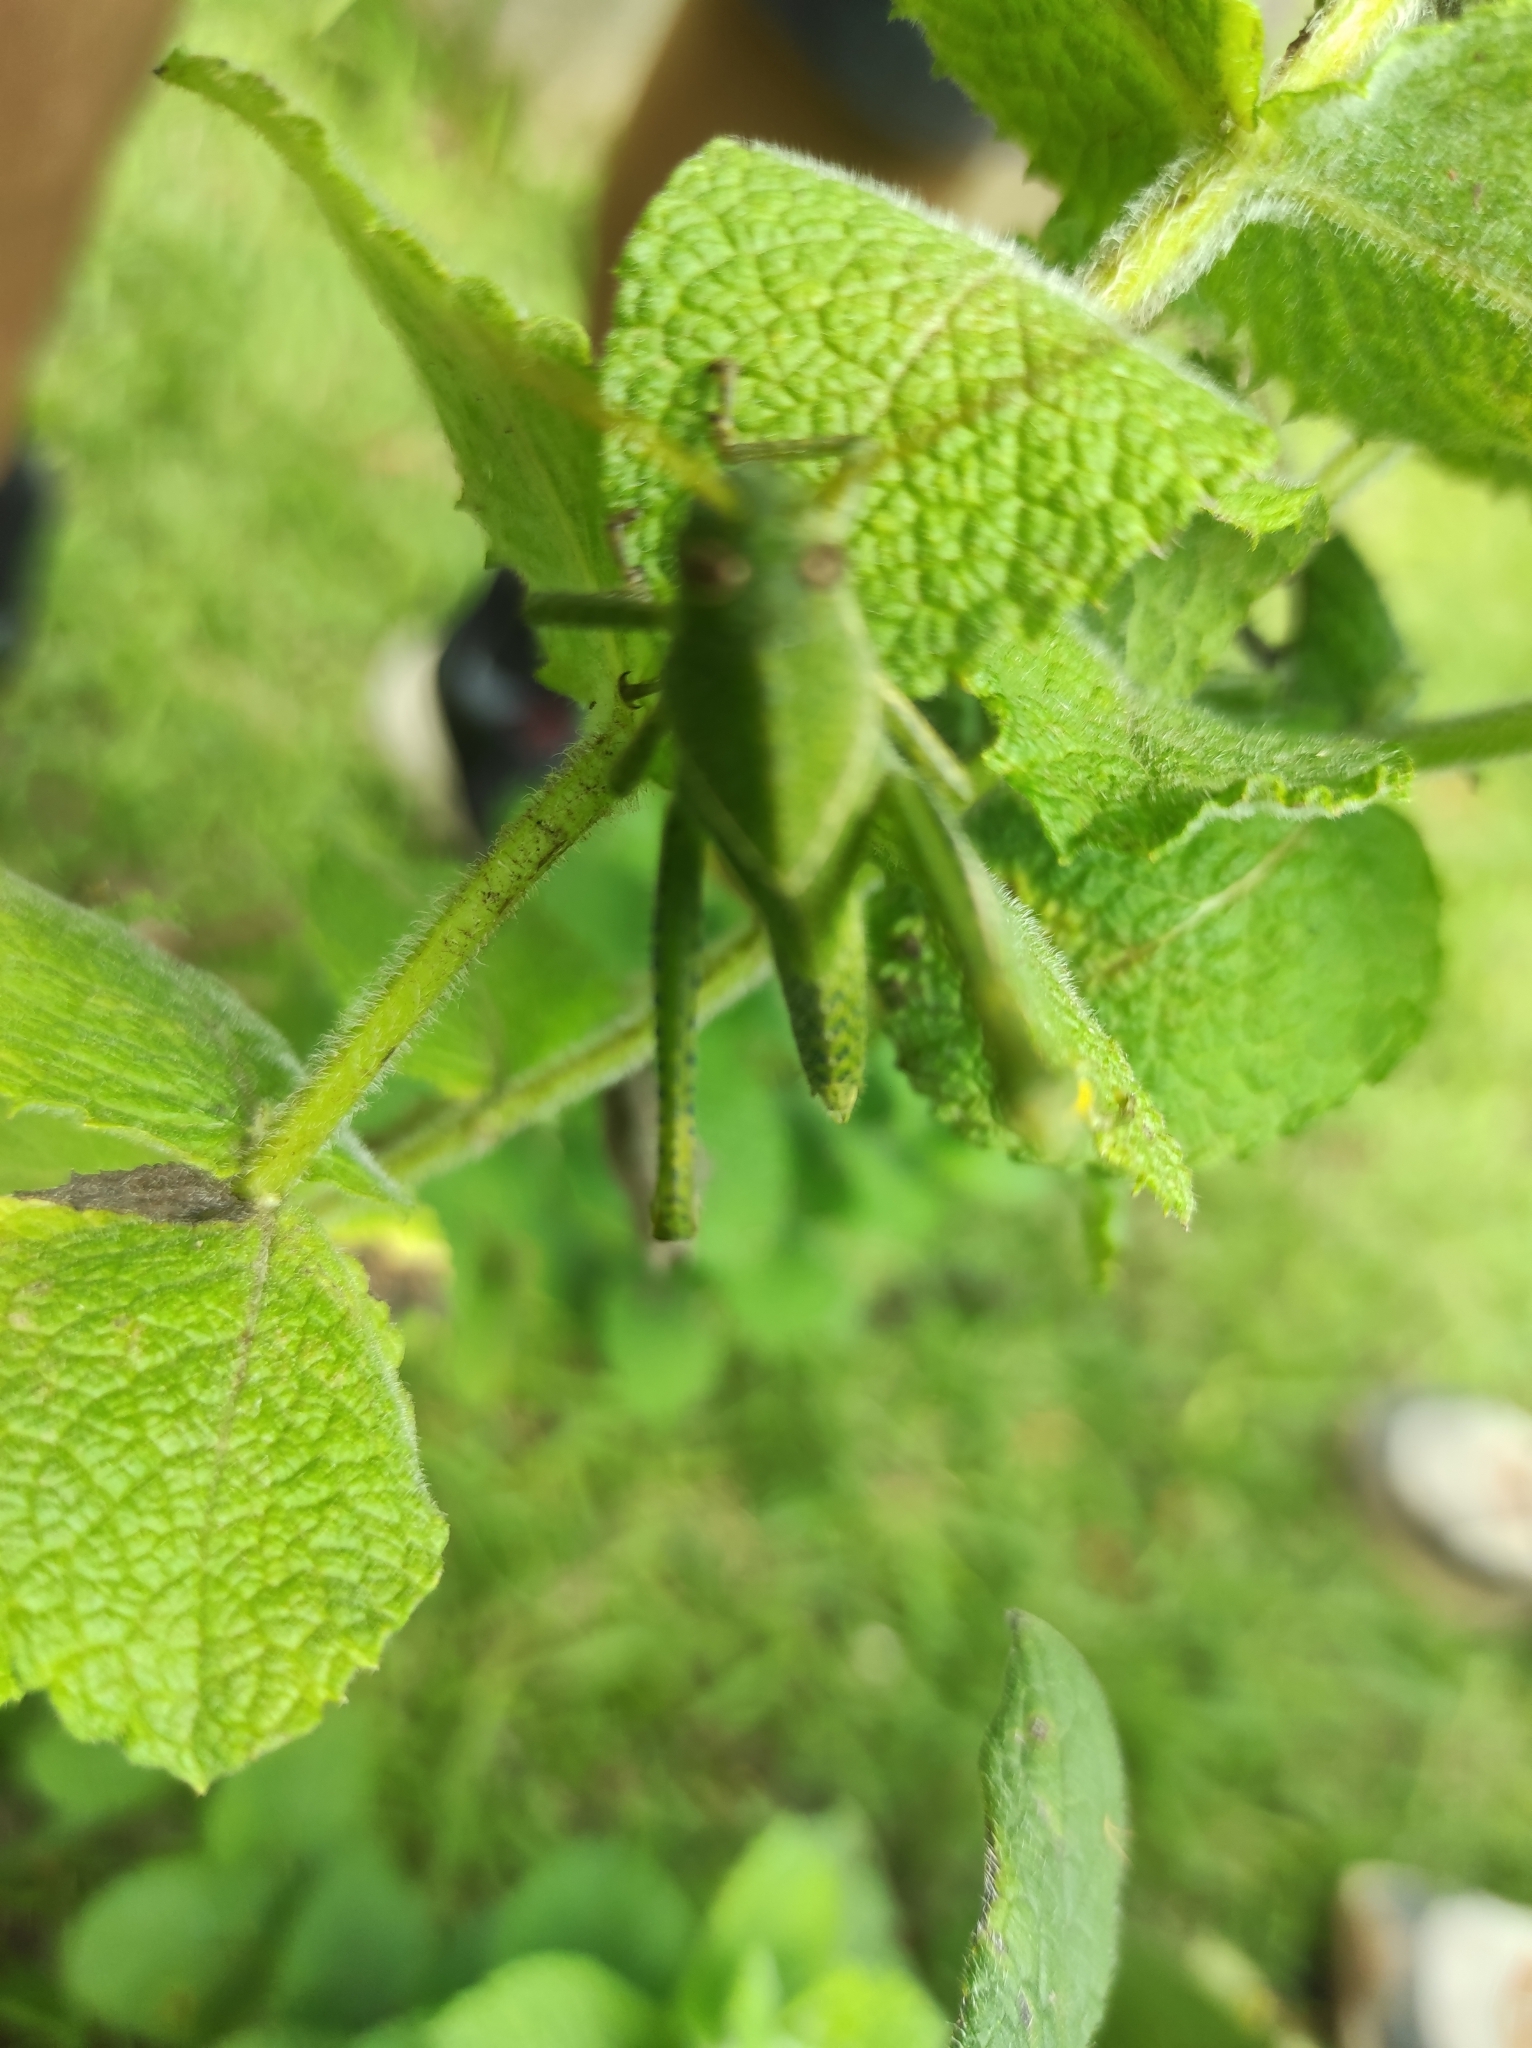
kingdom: Animalia
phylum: Arthropoda
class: Insecta
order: Orthoptera
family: Acrididae
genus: Schistocerca
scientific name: Schistocerca flavofasciata
